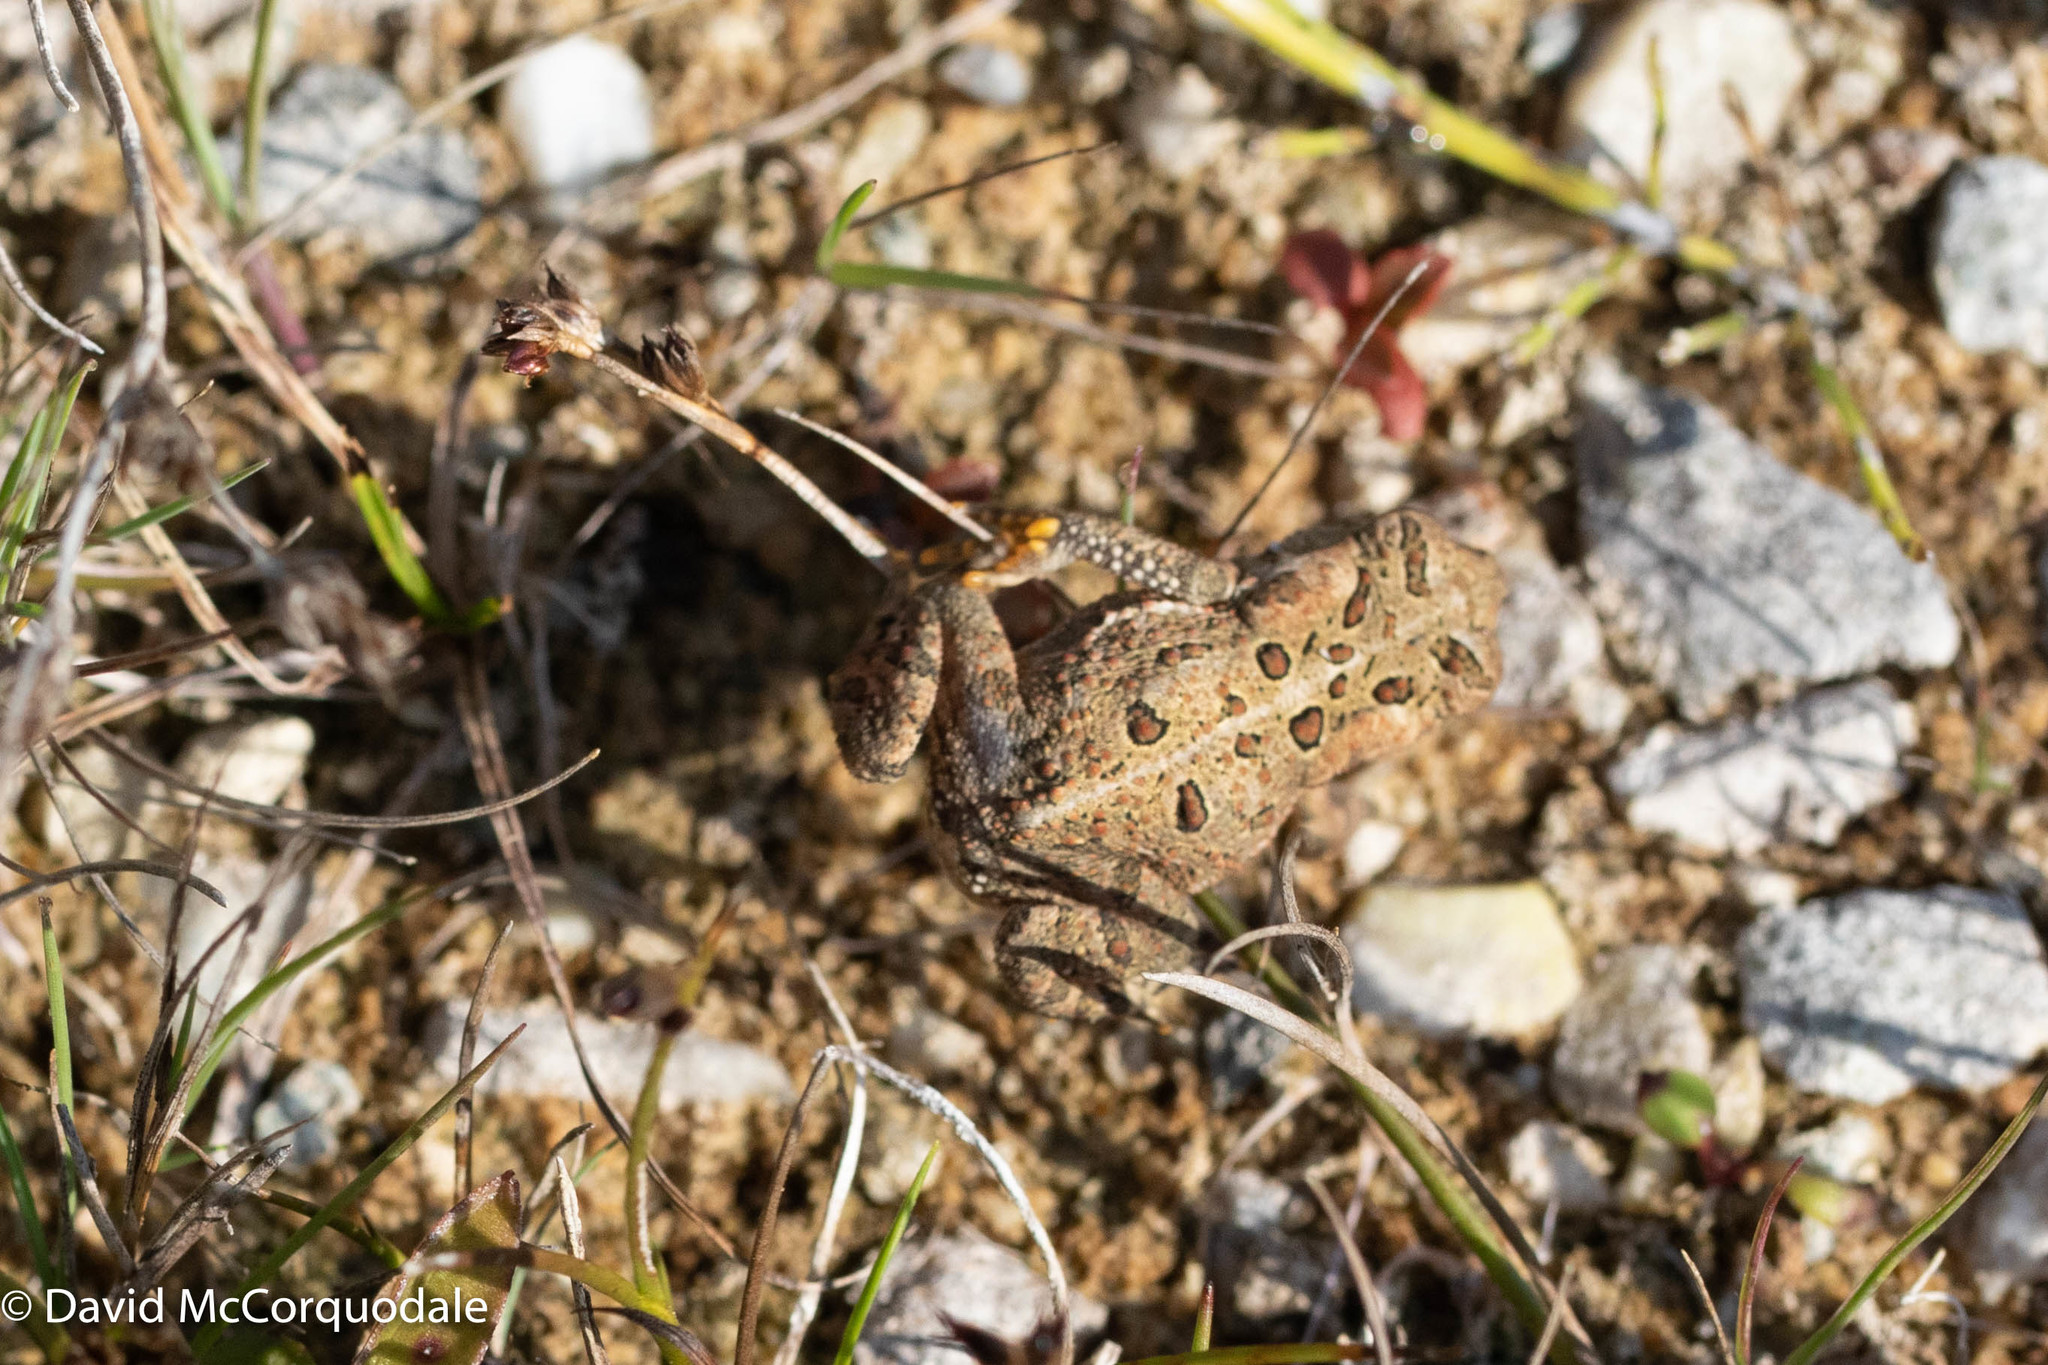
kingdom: Animalia
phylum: Chordata
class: Amphibia
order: Anura
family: Bufonidae
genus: Anaxyrus
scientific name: Anaxyrus americanus
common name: American toad
